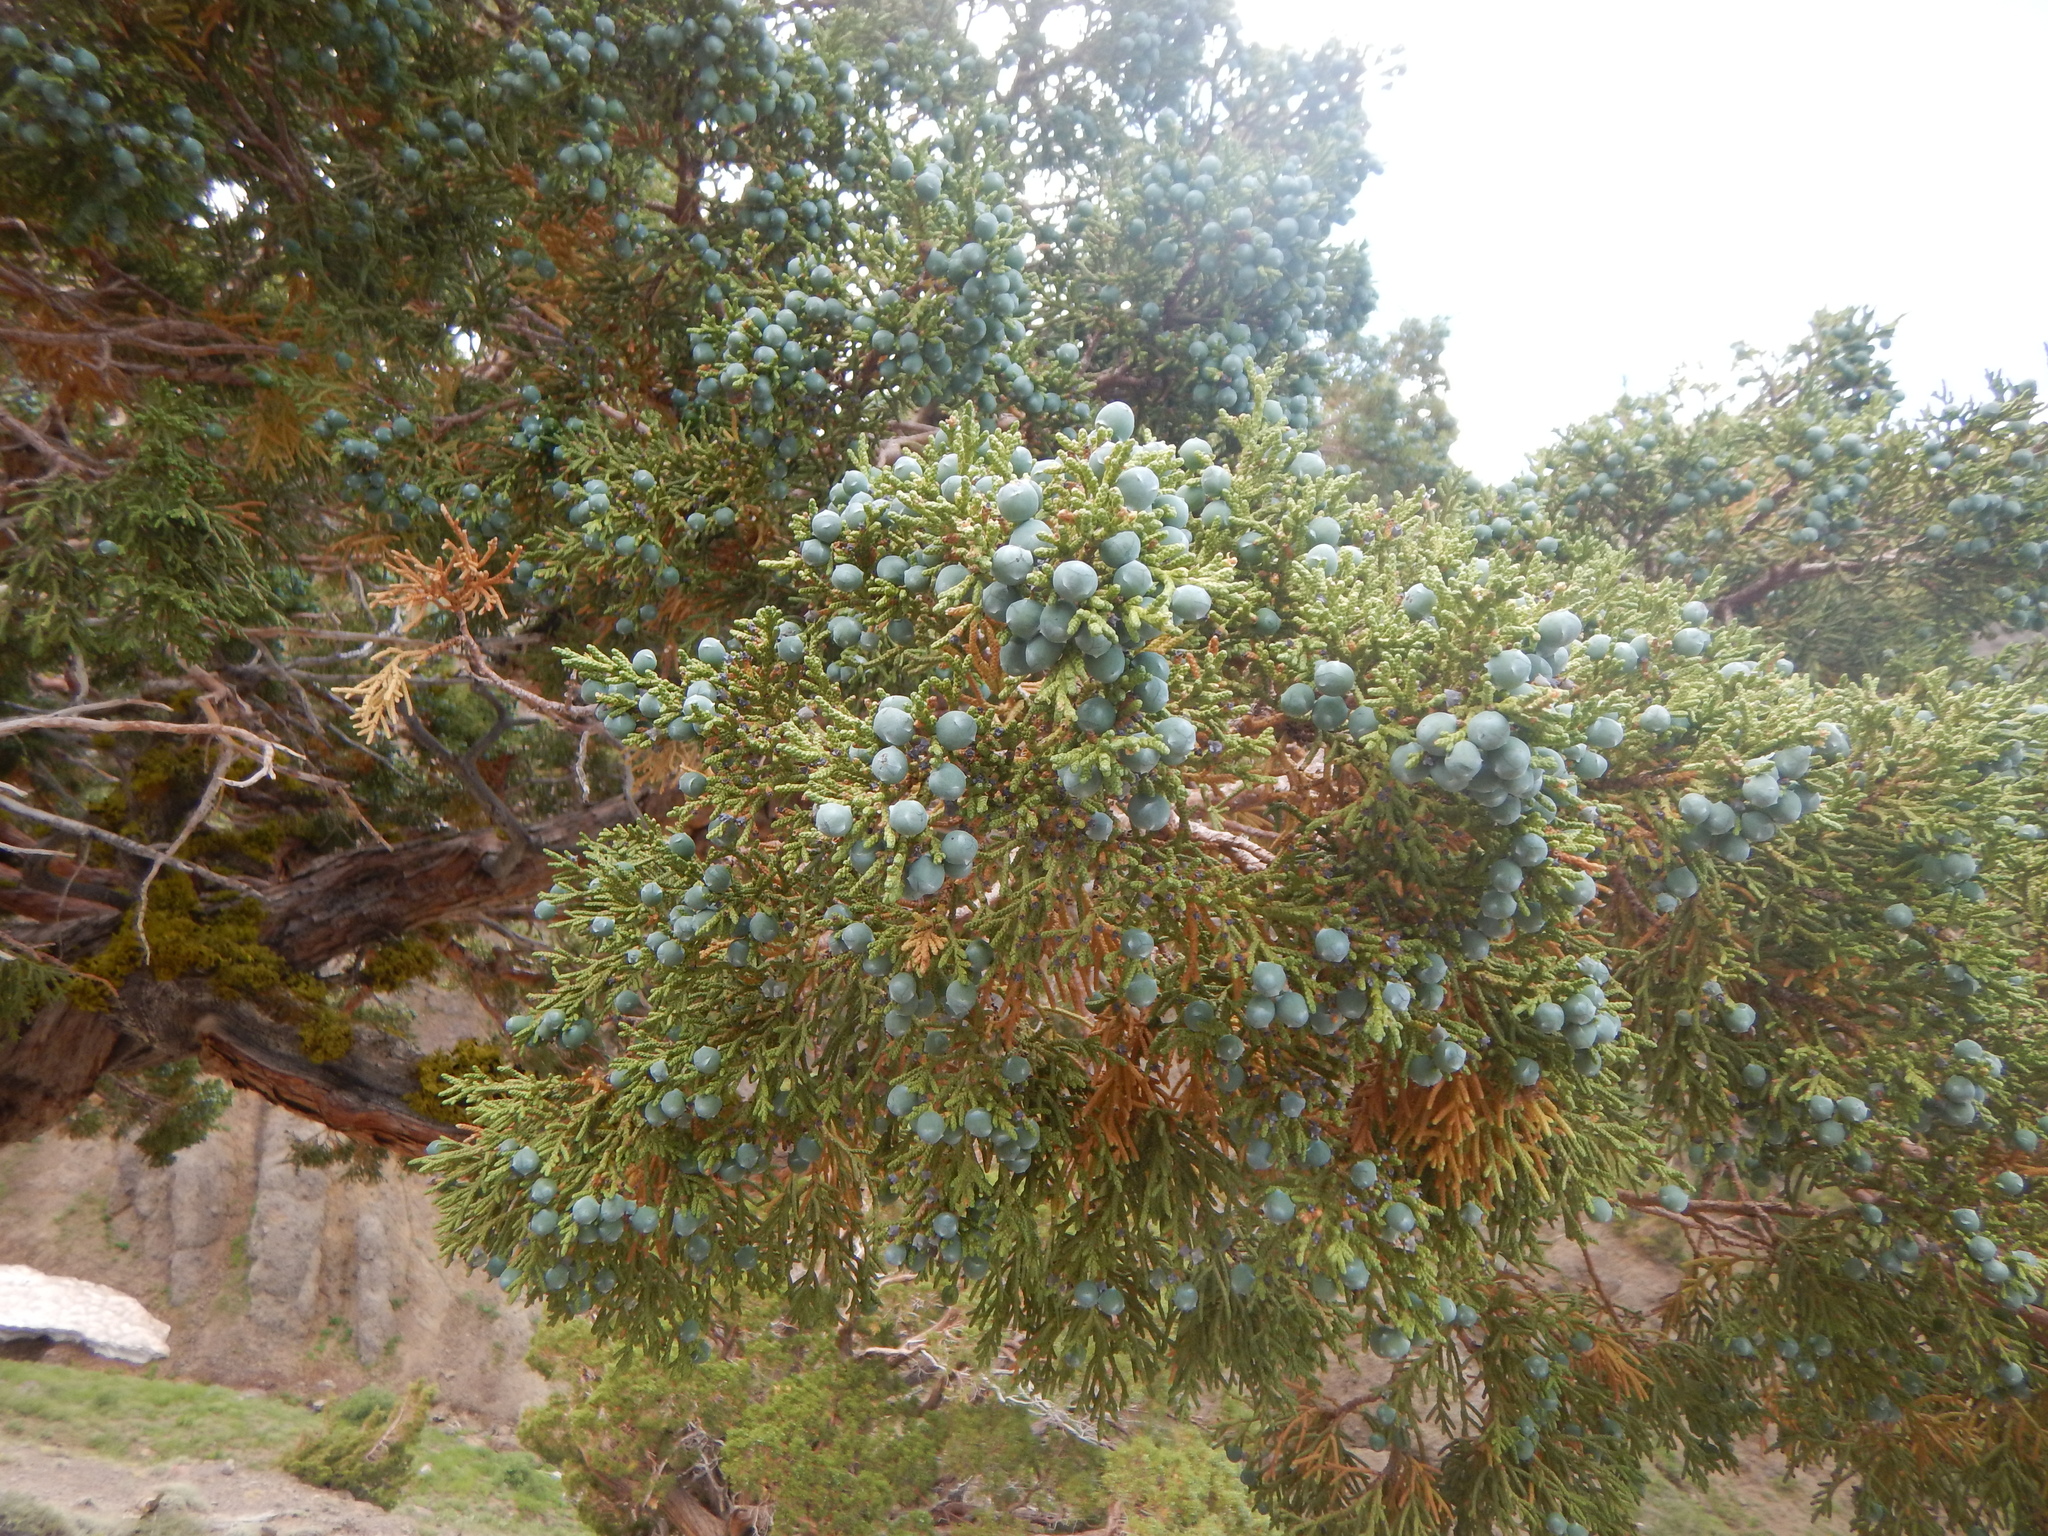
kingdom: Plantae
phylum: Tracheophyta
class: Pinopsida
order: Pinales
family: Cupressaceae
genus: Juniperus
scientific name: Juniperus occidentalis
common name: Western juniper
